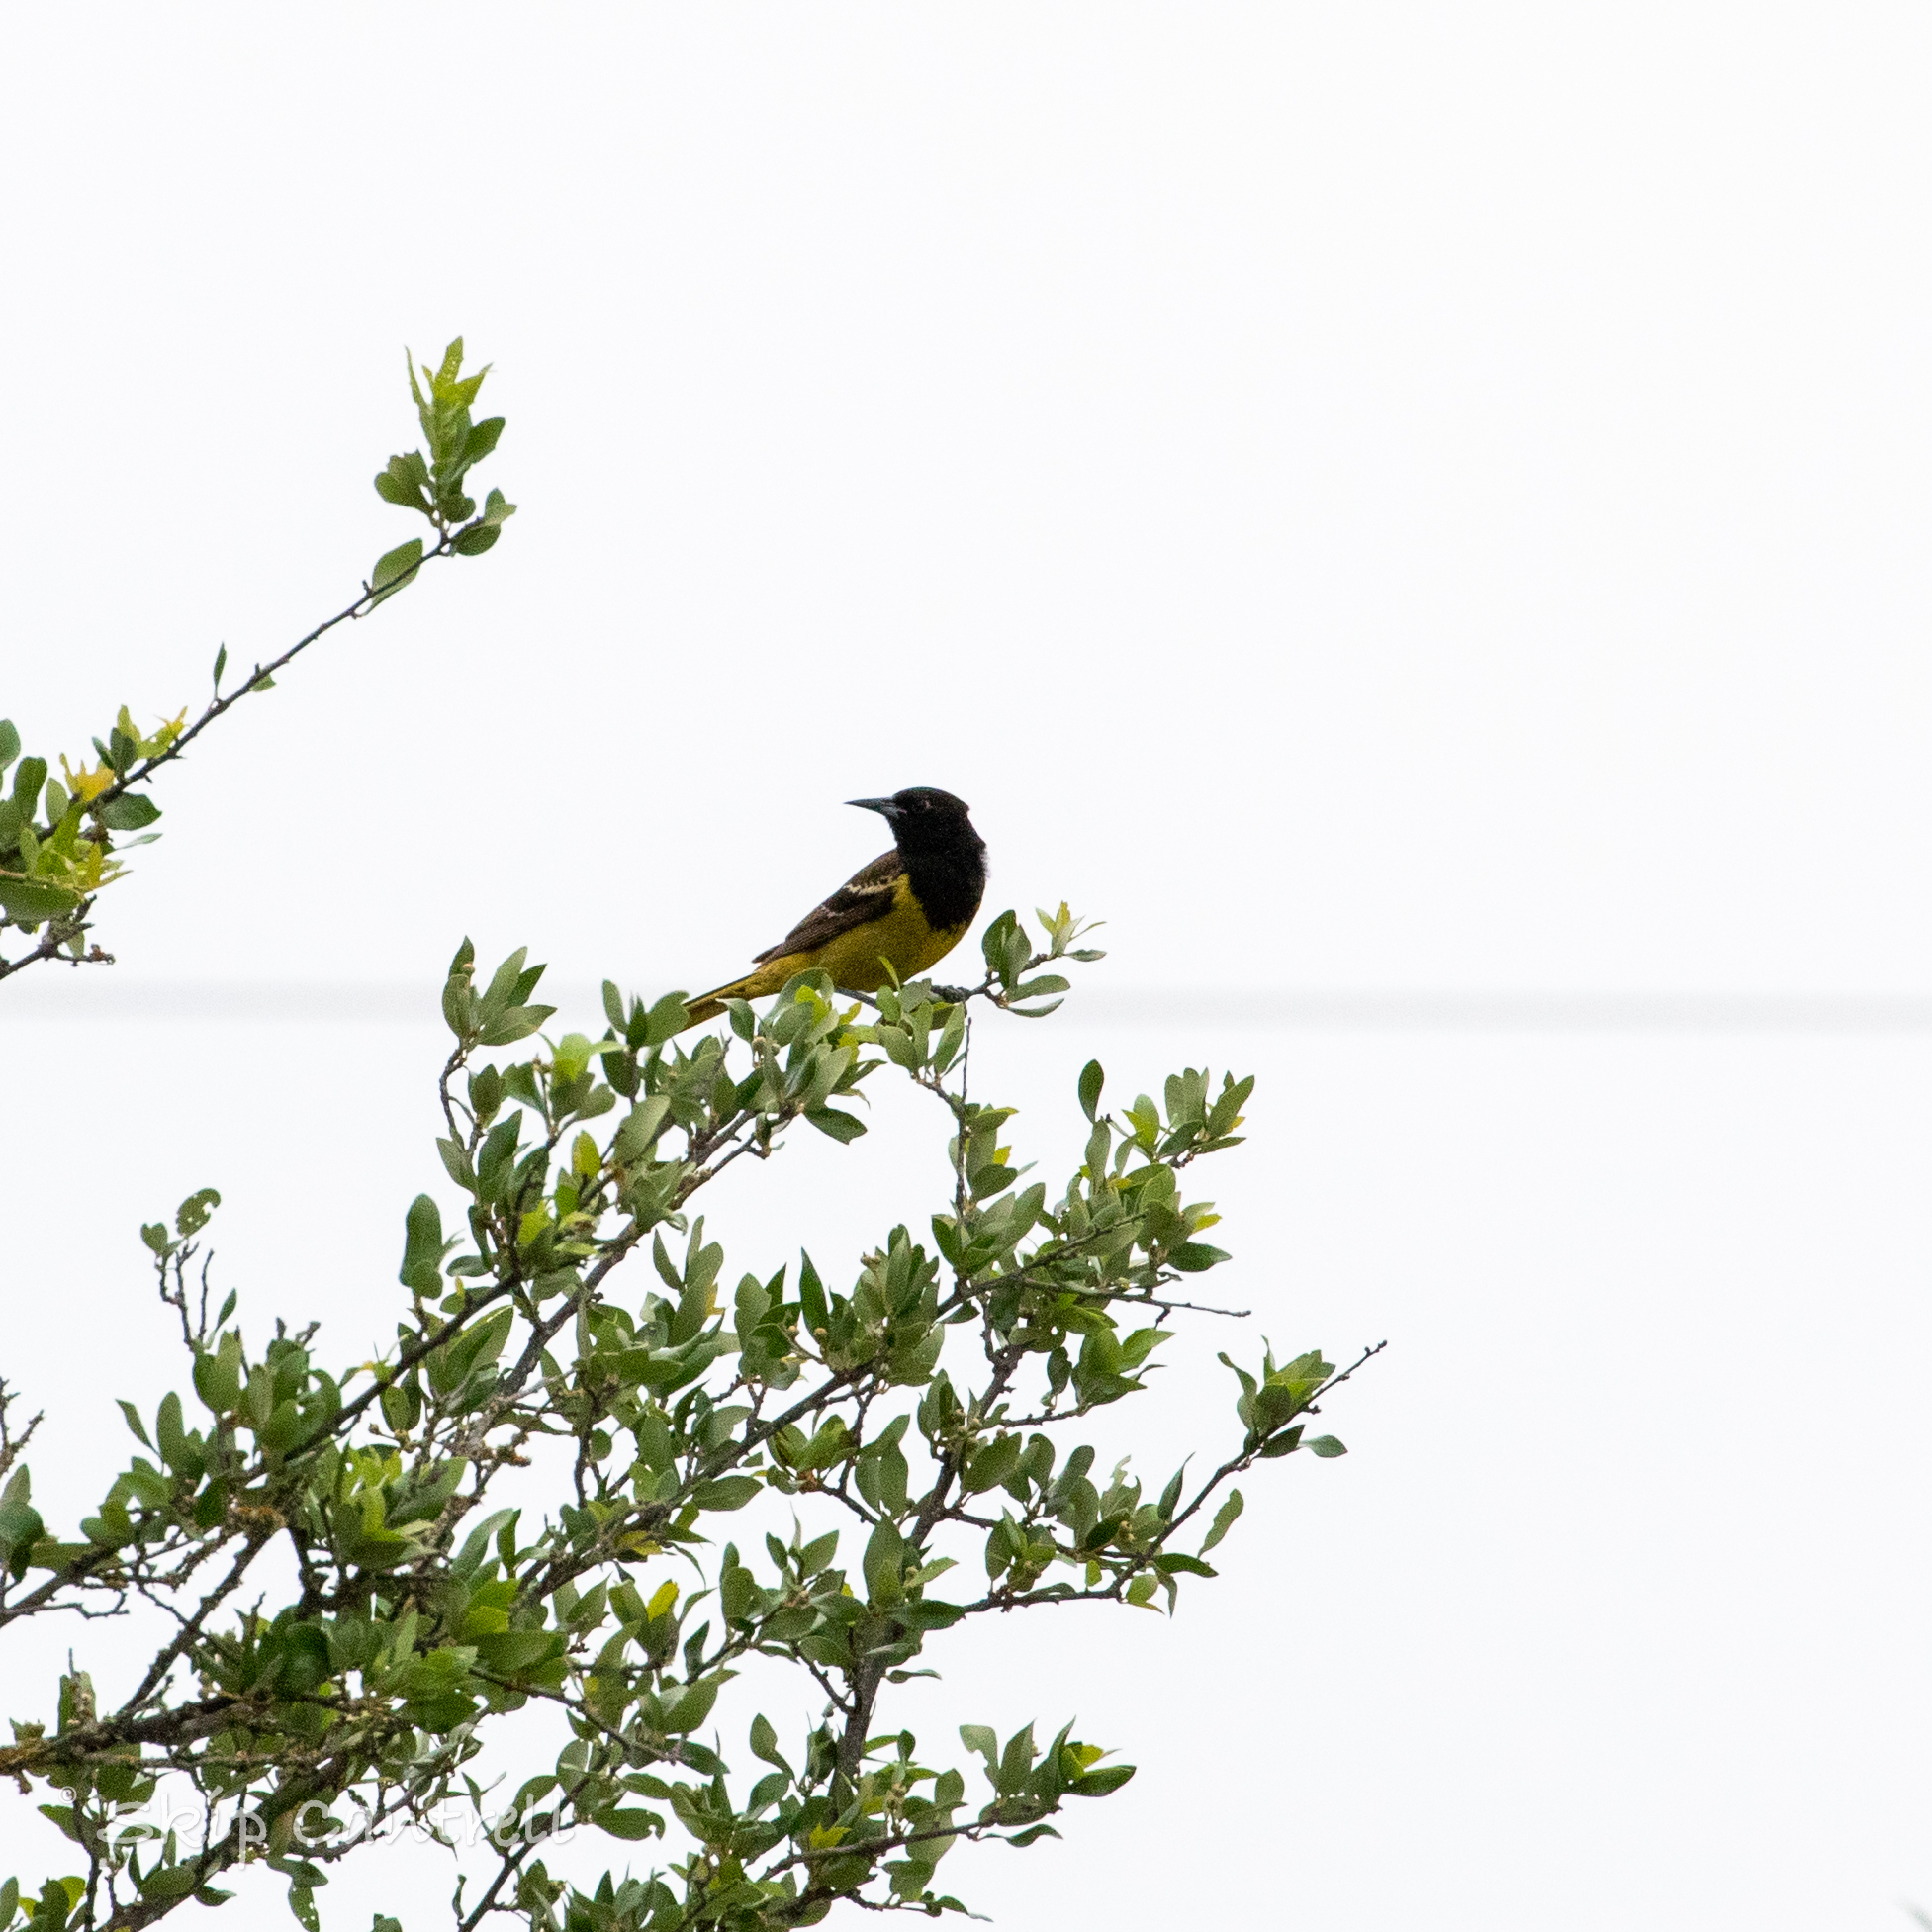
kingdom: Animalia
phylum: Chordata
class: Aves
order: Passeriformes
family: Icteridae
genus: Icterus
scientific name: Icterus parisorum
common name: Scott's oriole
